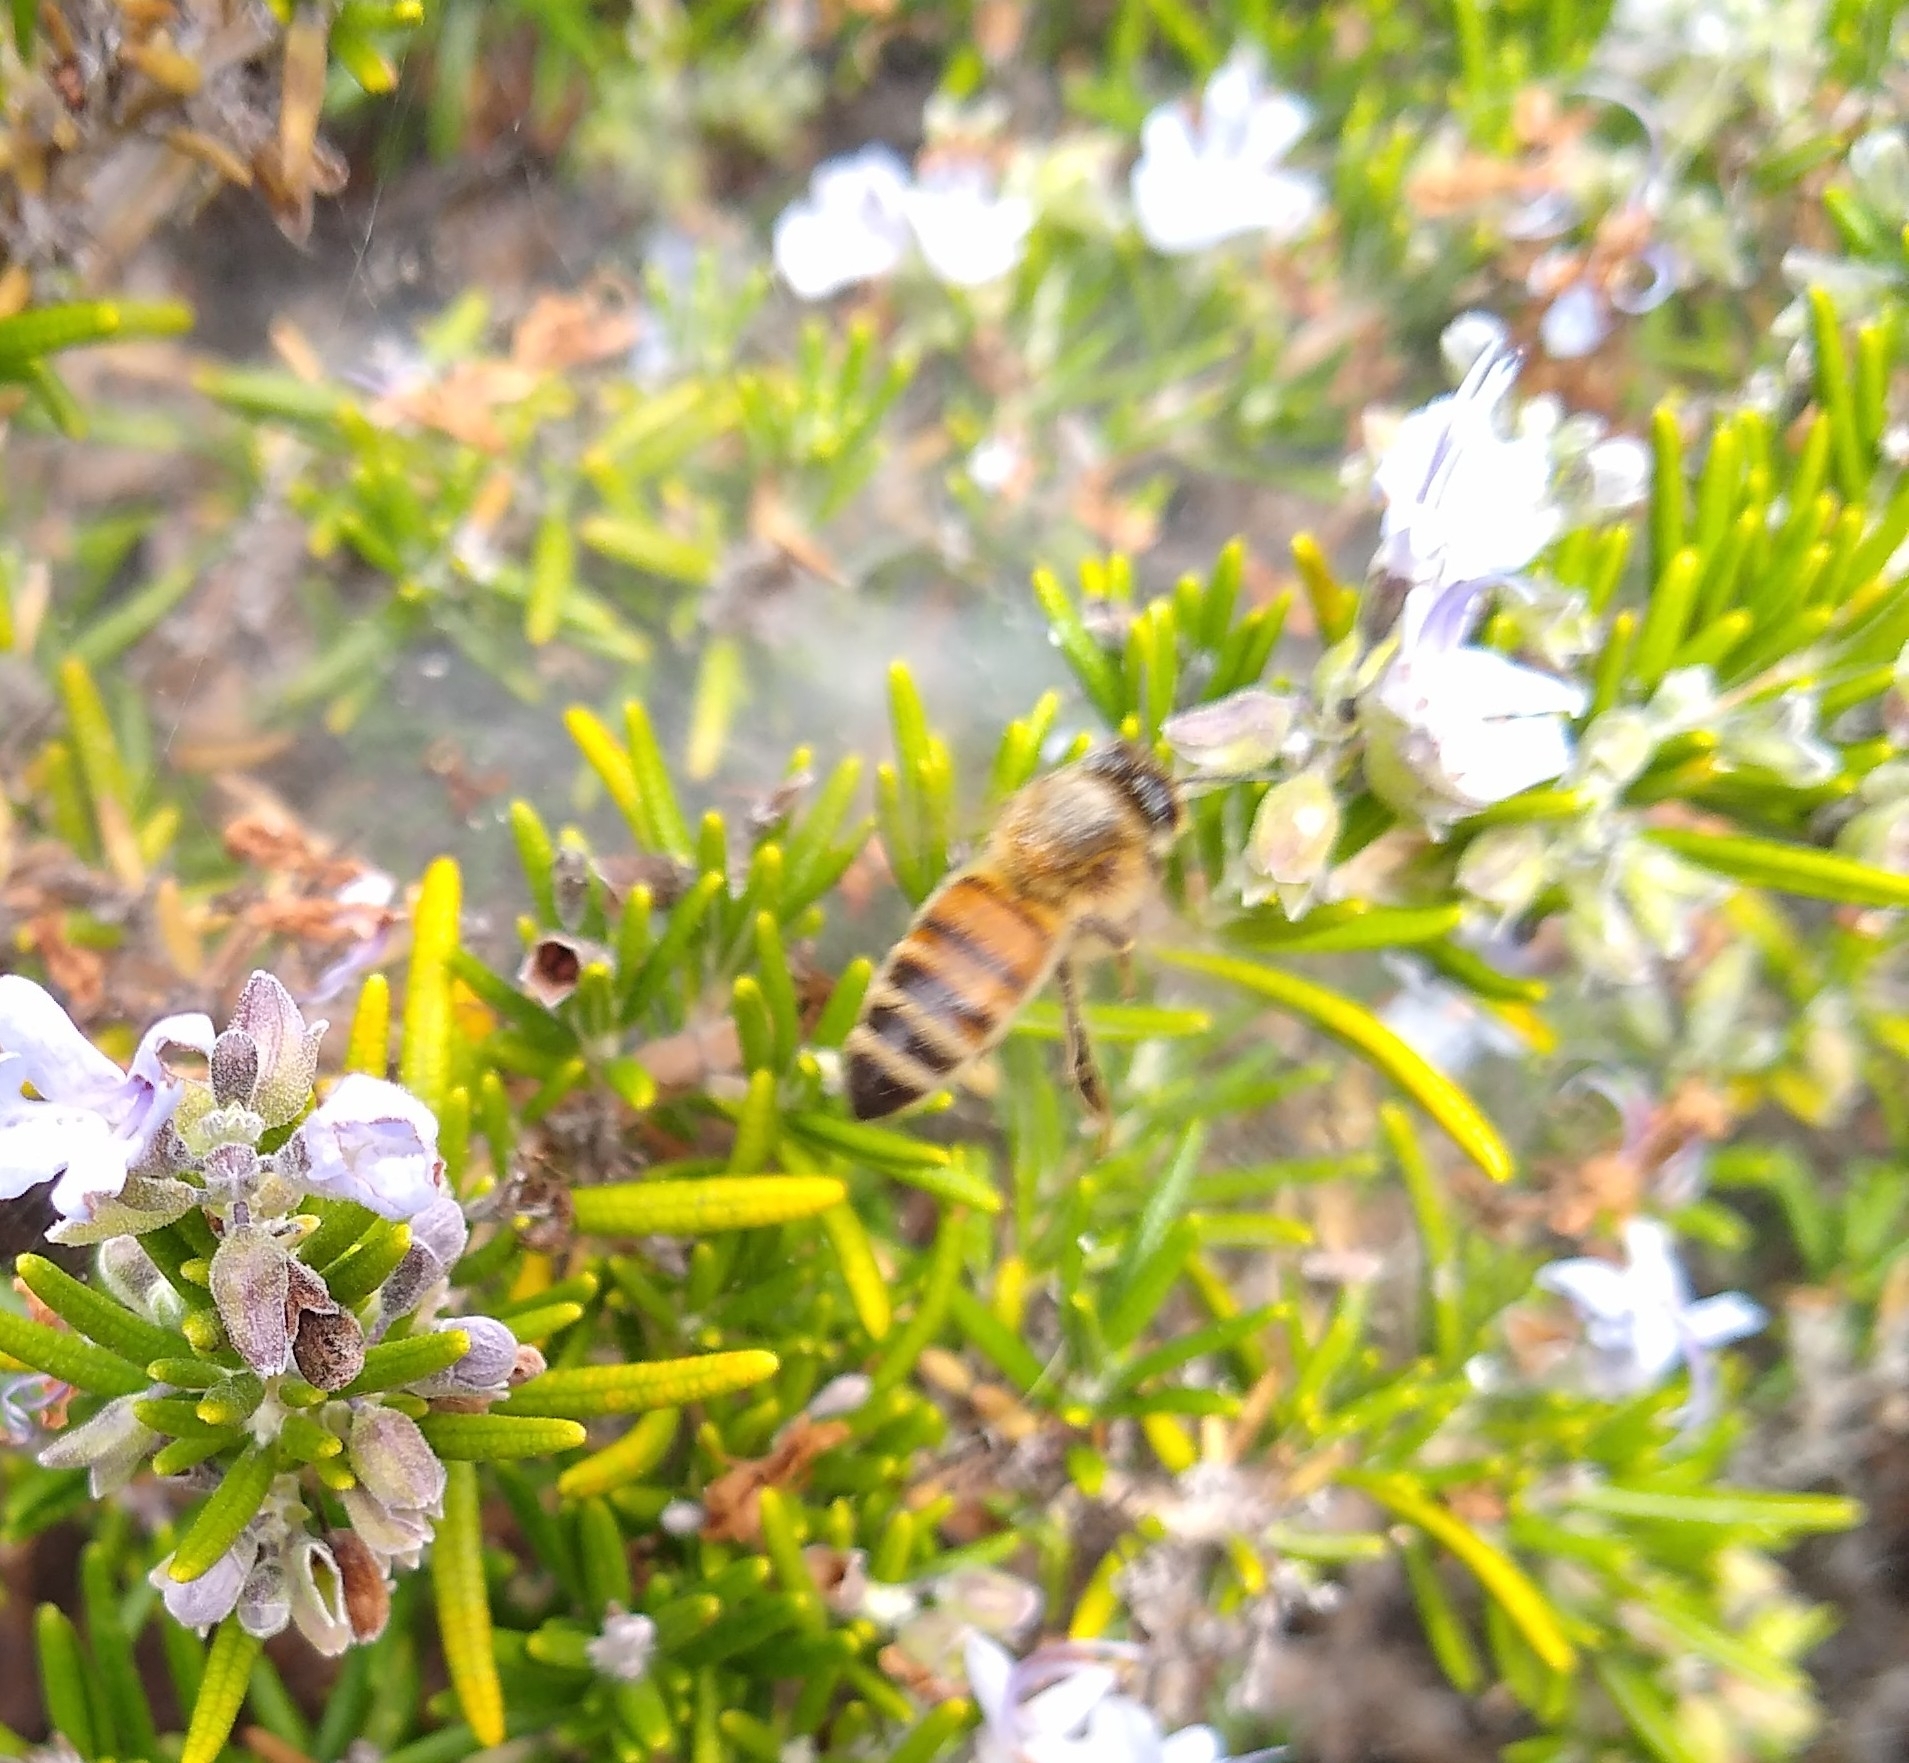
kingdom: Animalia
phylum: Arthropoda
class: Insecta
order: Hymenoptera
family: Apidae
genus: Apis
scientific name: Apis mellifera
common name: Honey bee
